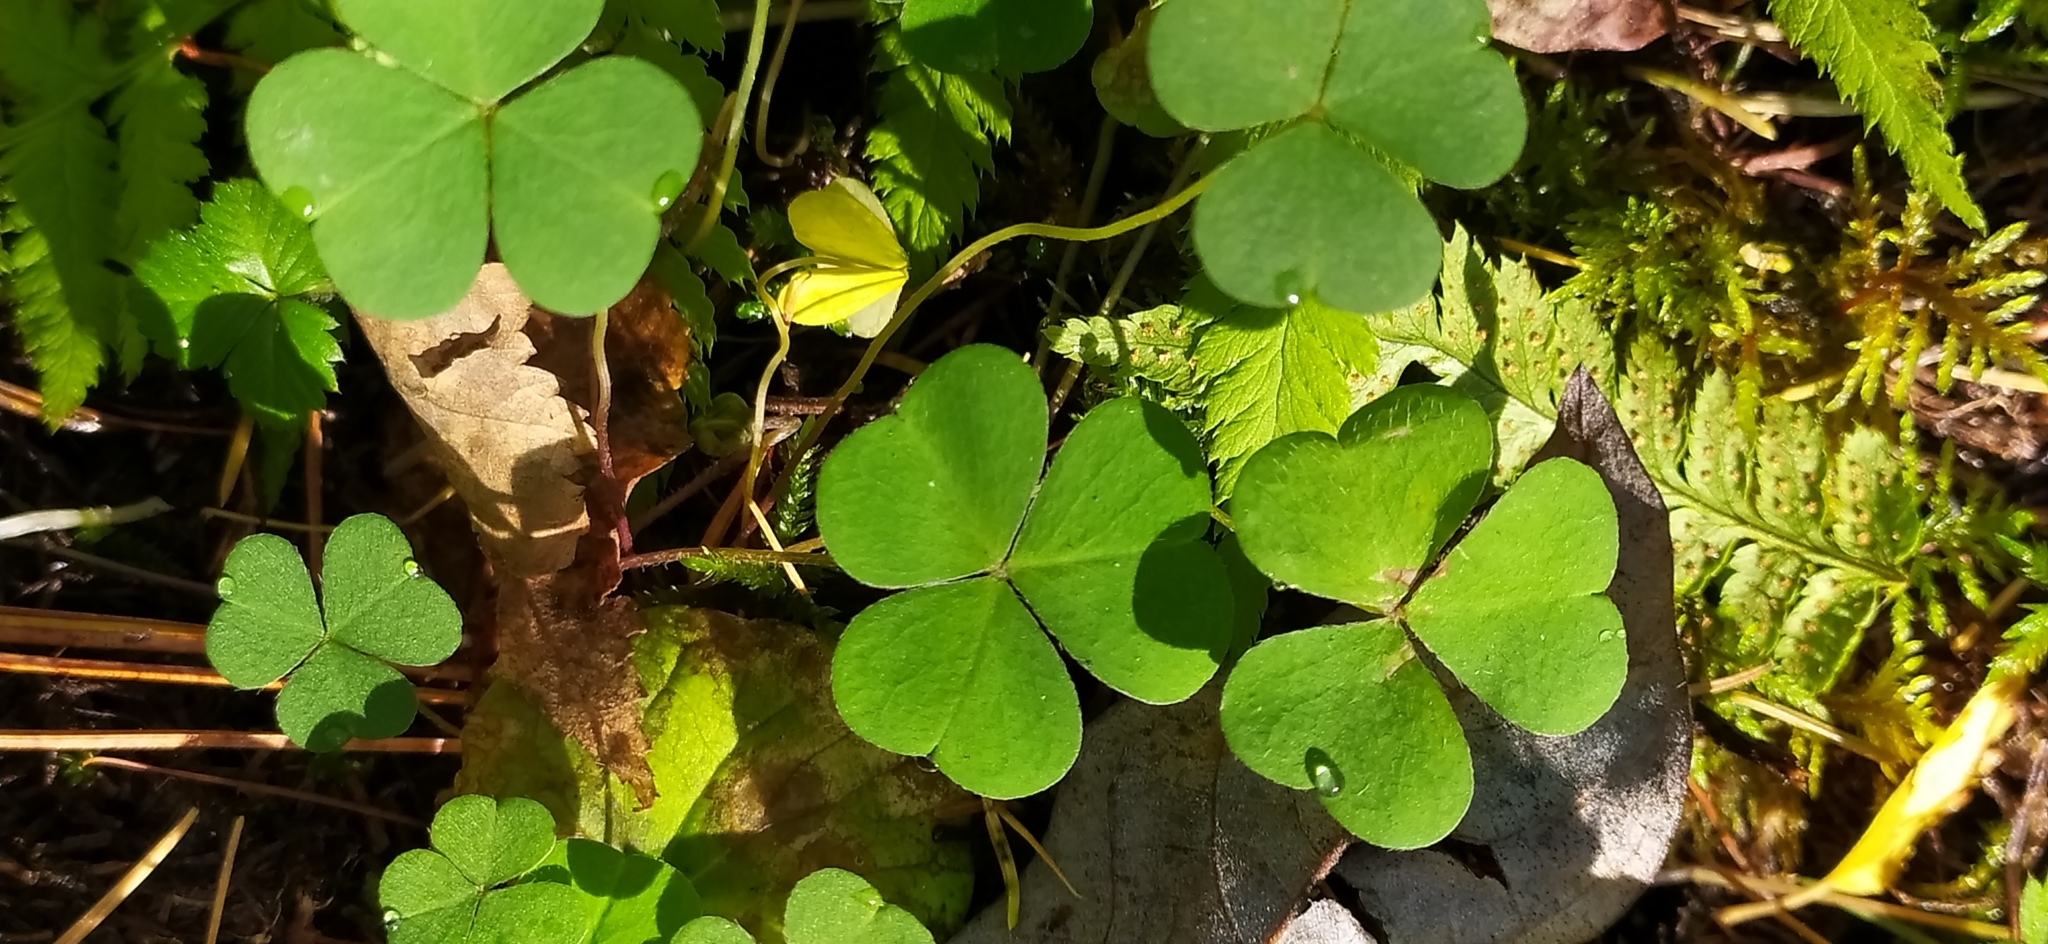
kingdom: Plantae
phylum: Tracheophyta
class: Magnoliopsida
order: Oxalidales
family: Oxalidaceae
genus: Oxalis
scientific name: Oxalis acetosella
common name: Wood-sorrel
